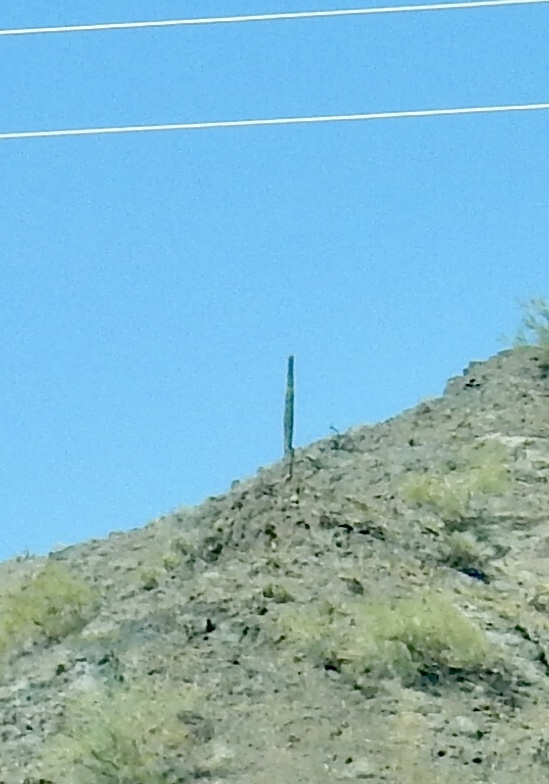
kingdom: Plantae
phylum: Tracheophyta
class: Magnoliopsida
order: Caryophyllales
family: Cactaceae
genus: Carnegiea
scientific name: Carnegiea gigantea
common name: Saguaro
